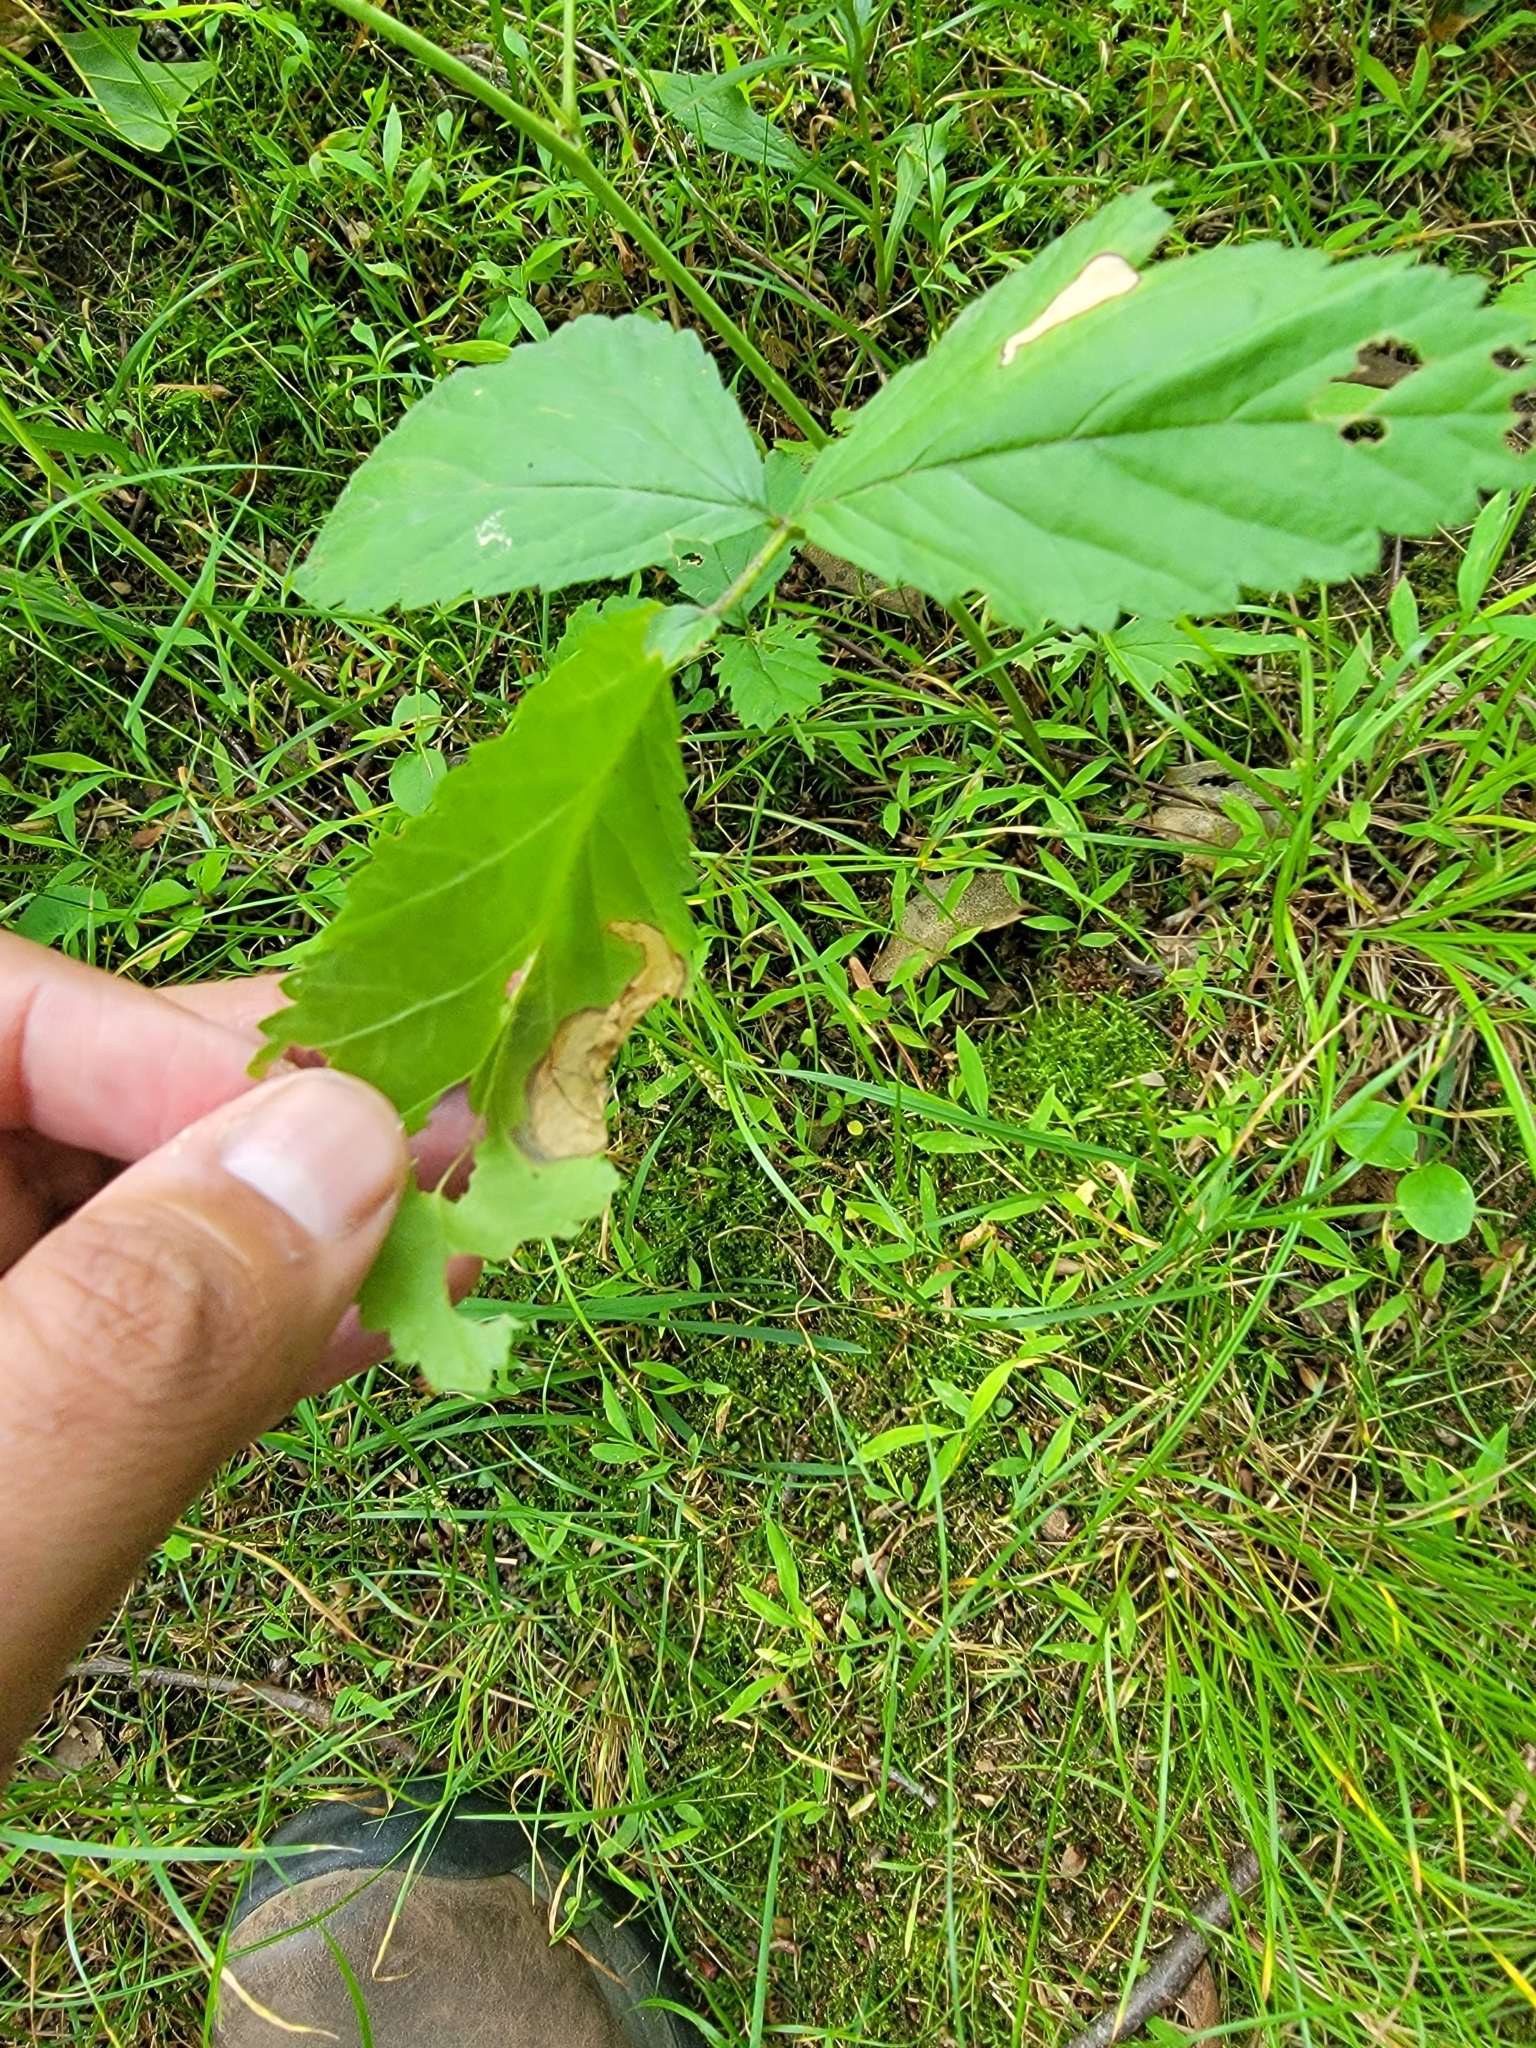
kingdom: Animalia
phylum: Arthropoda
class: Insecta
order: Hymenoptera
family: Tenthredinidae
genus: Metallus
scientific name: Metallus rohweri
